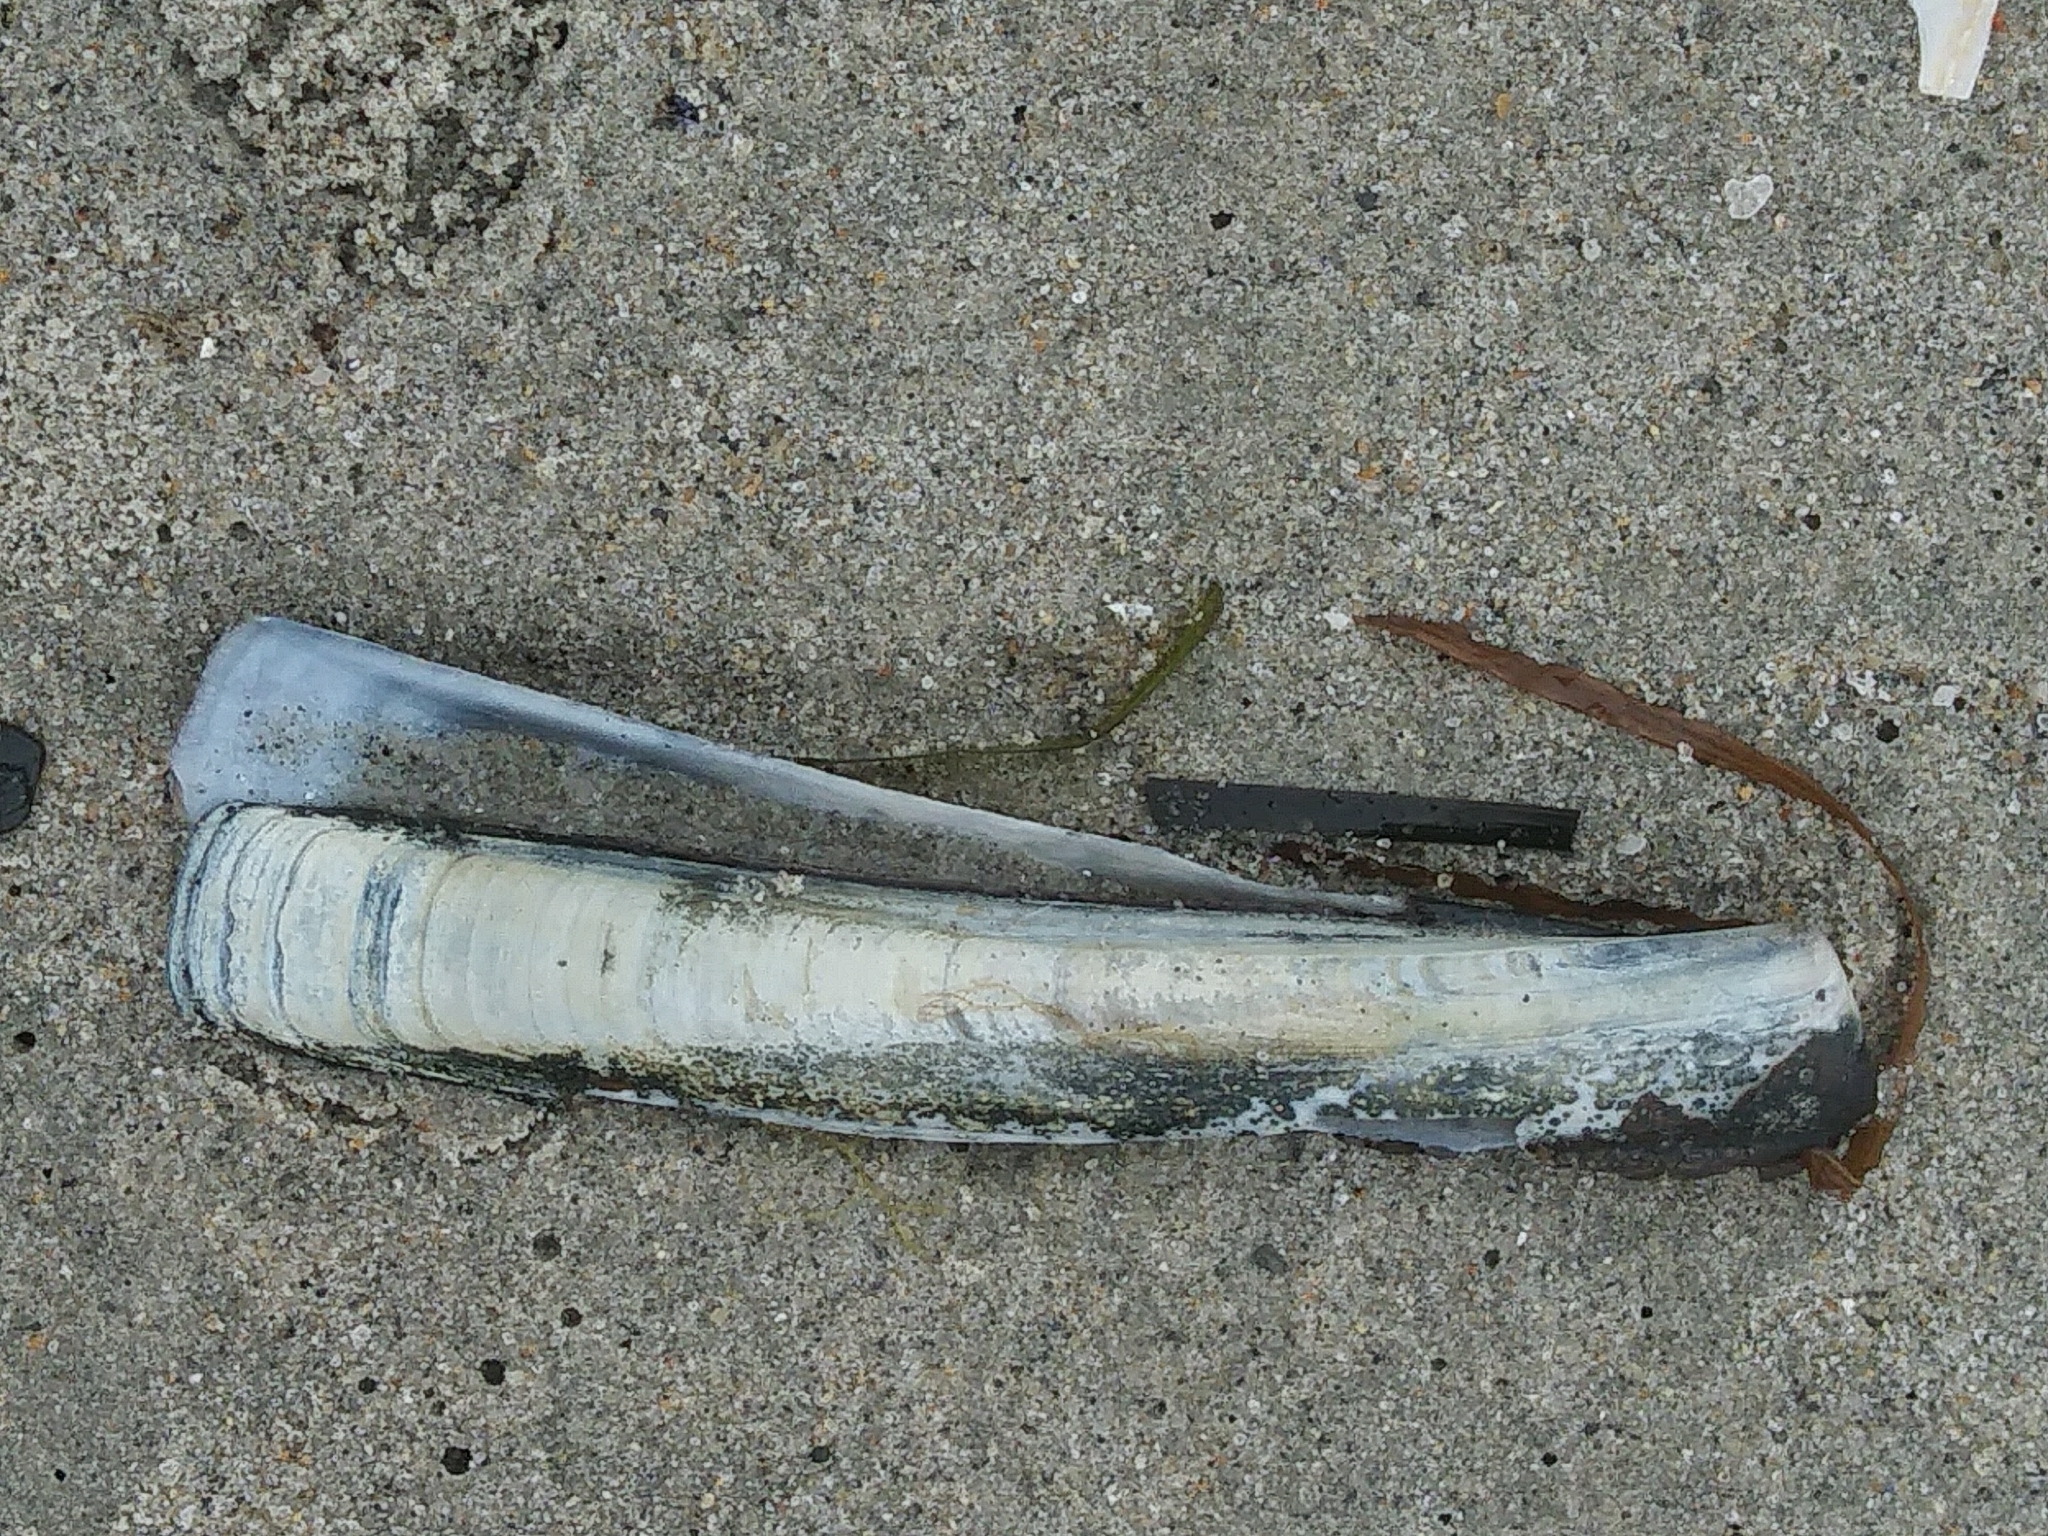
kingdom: Animalia
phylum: Mollusca
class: Bivalvia
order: Adapedonta
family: Pharidae
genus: Ensis
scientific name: Ensis leei
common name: American jack knife clam
